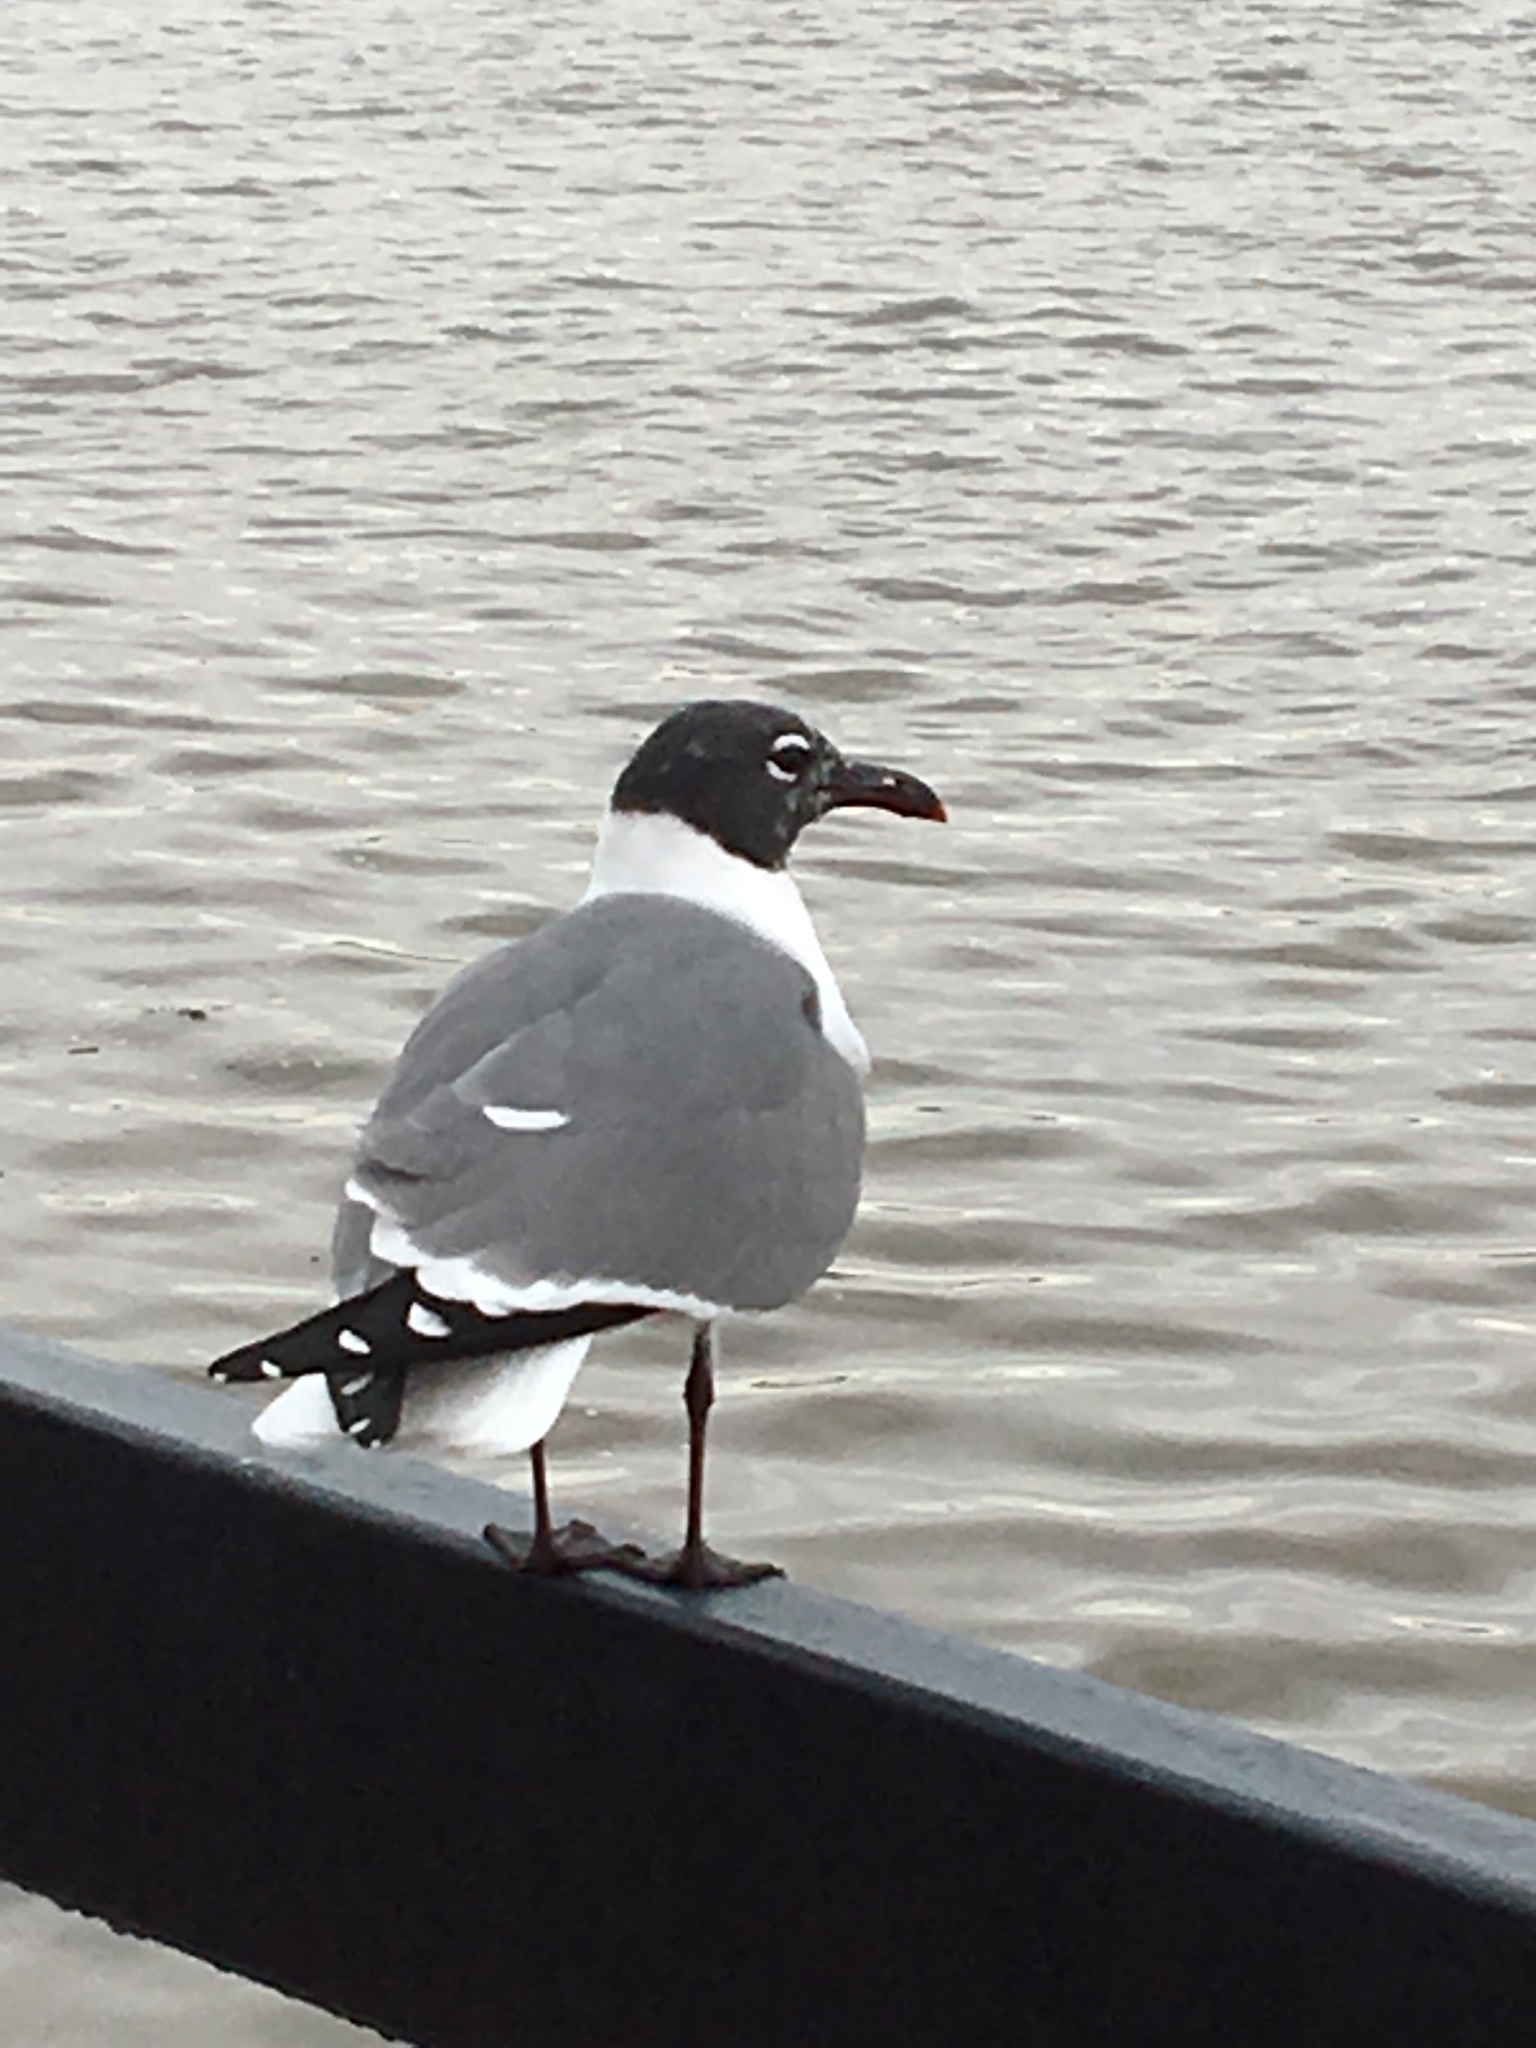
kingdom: Animalia
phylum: Chordata
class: Aves
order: Charadriiformes
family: Laridae
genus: Leucophaeus
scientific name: Leucophaeus atricilla
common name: Laughing gull
